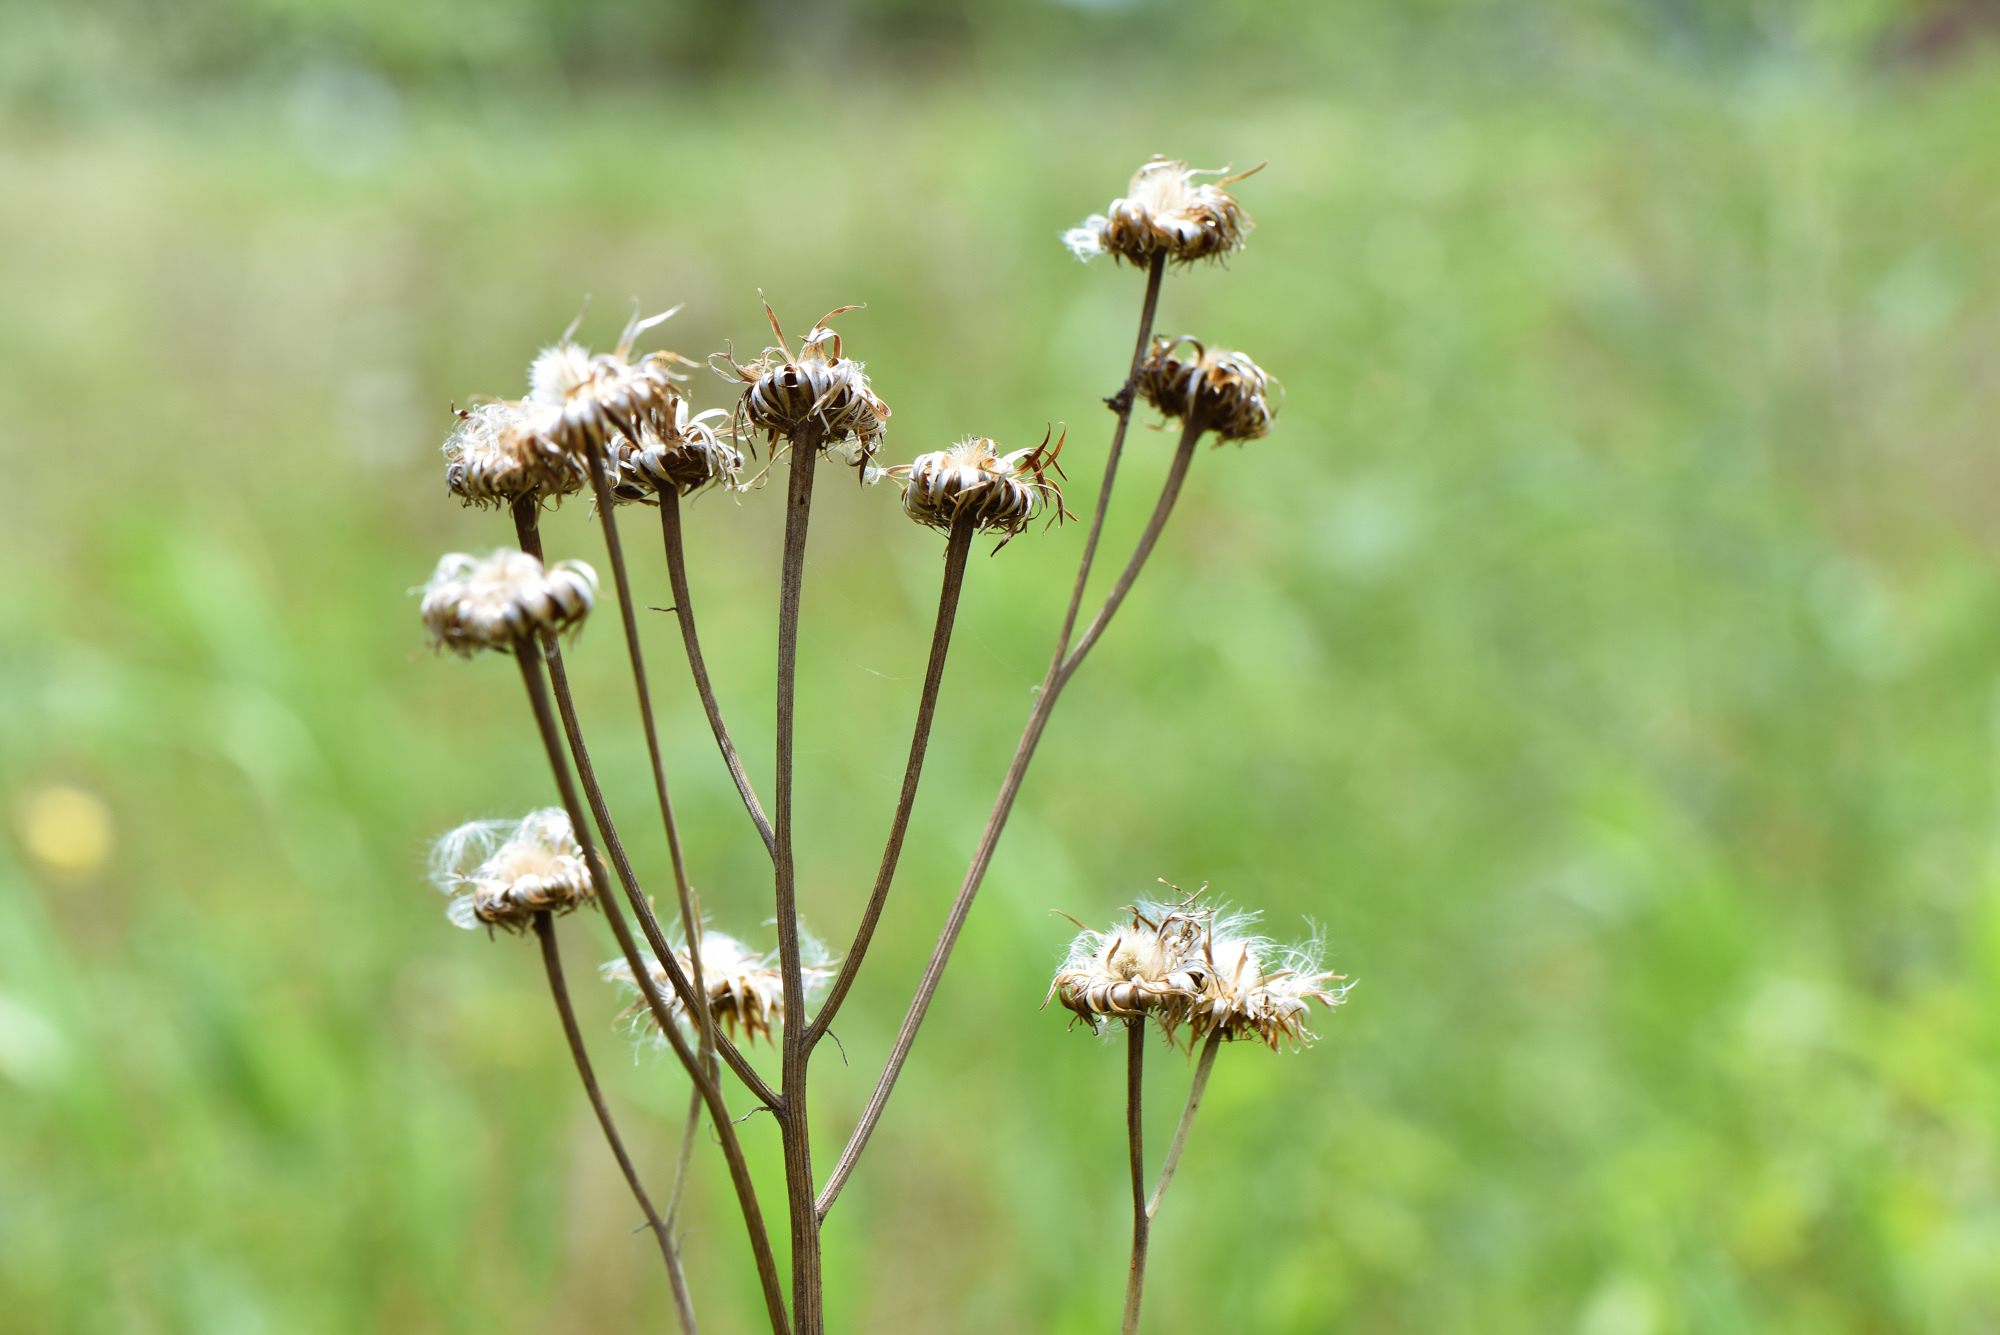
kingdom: Plantae
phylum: Tracheophyta
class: Magnoliopsida
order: Asterales
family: Asteraceae
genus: Saussurea
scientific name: Saussurea lyrata
